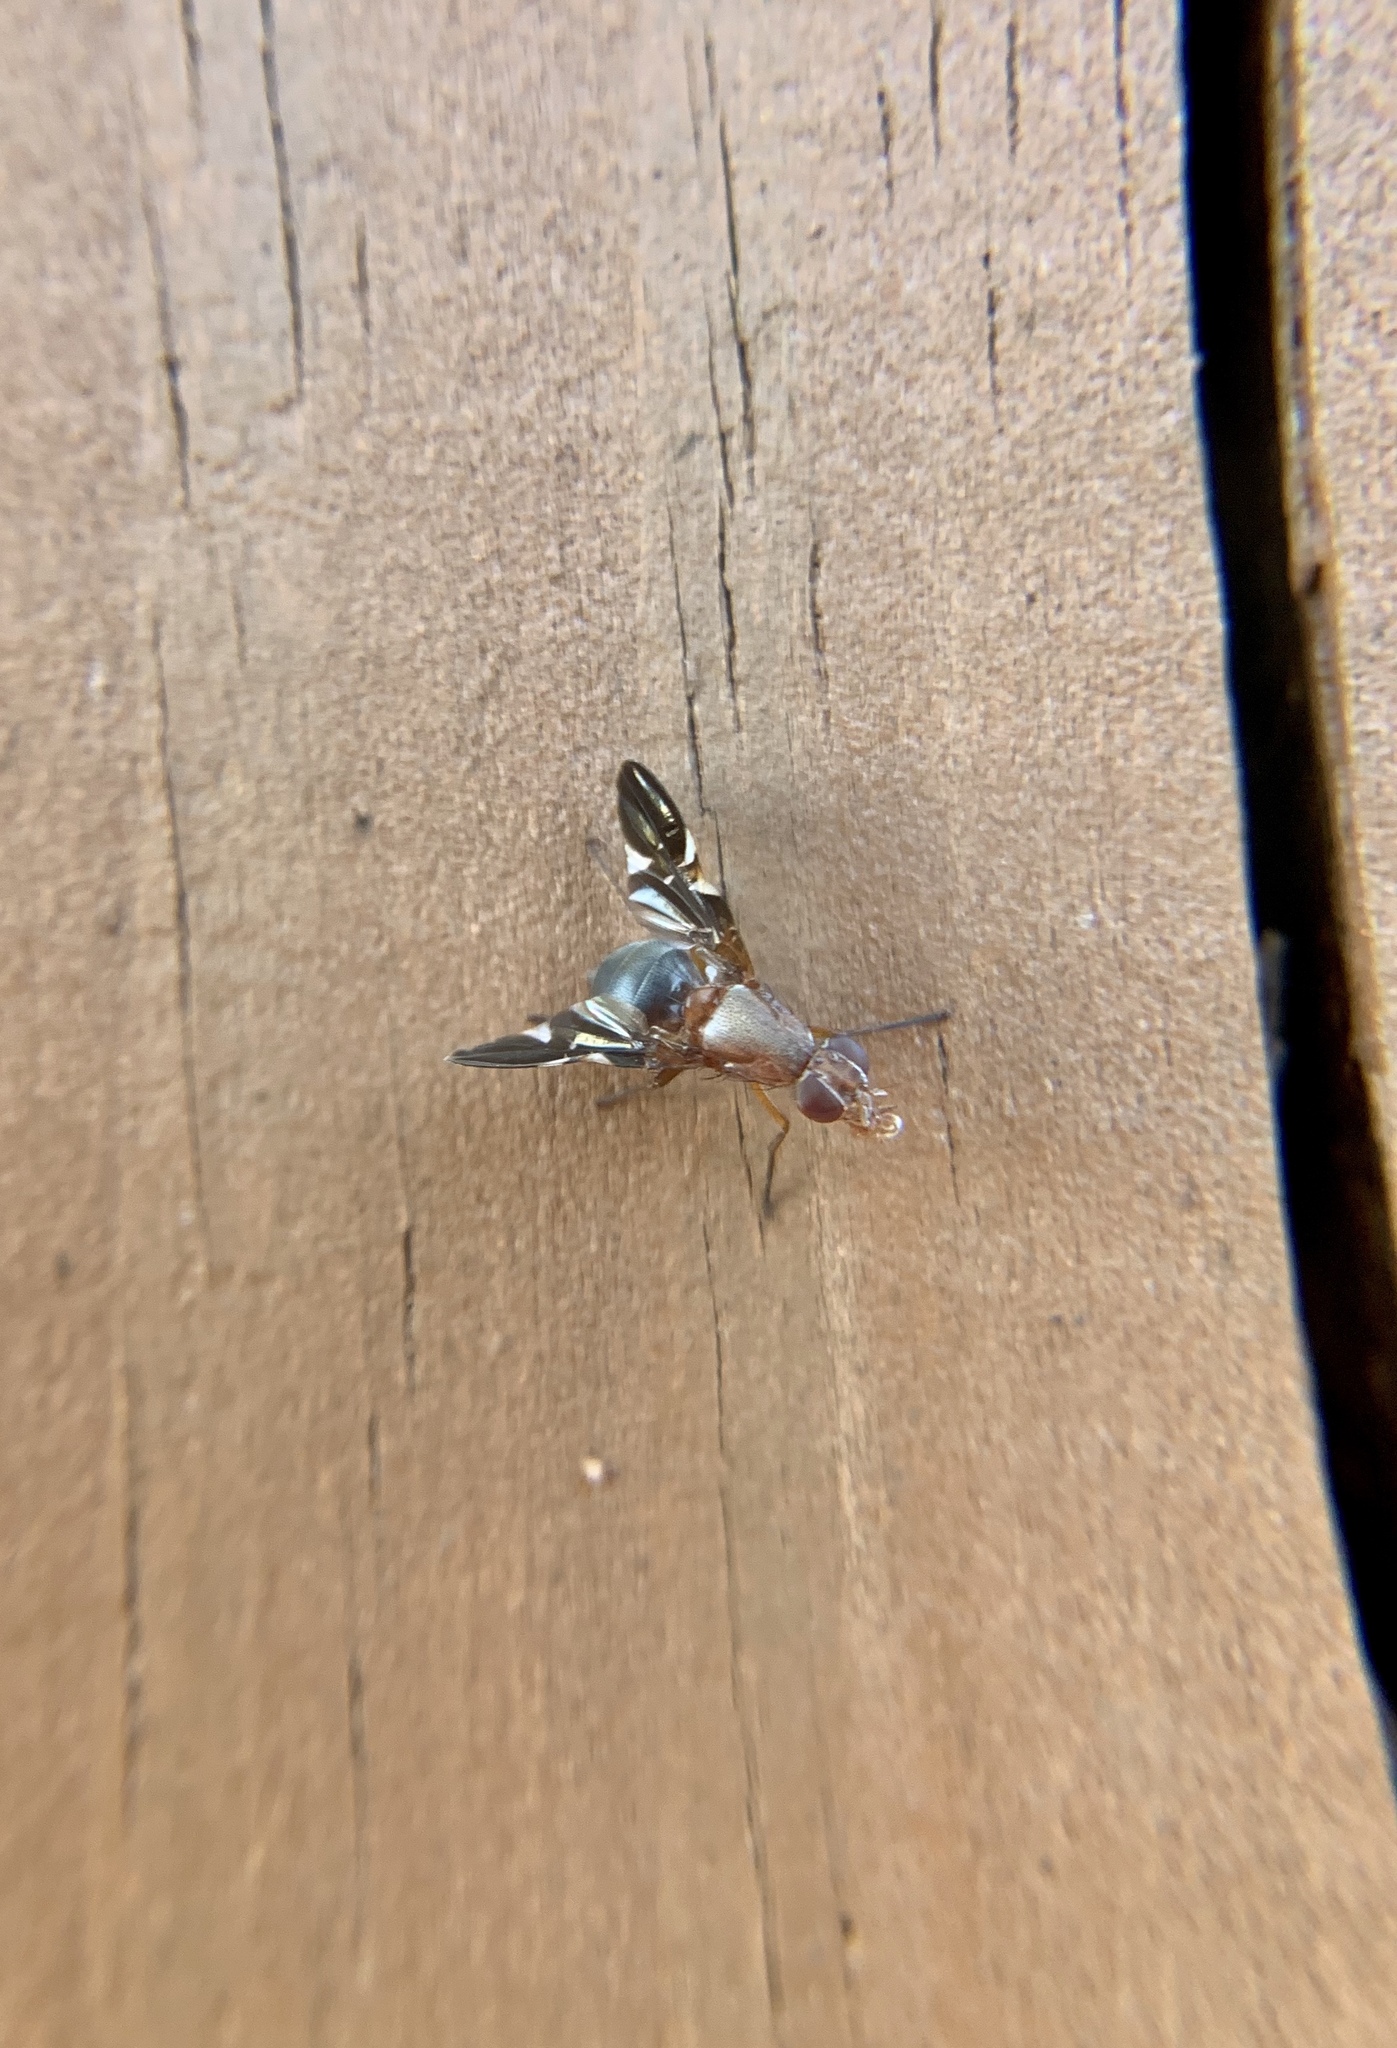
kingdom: Animalia
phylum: Arthropoda
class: Insecta
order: Diptera
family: Ulidiidae
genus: Delphinia
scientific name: Delphinia picta
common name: Common picture-winged fly
